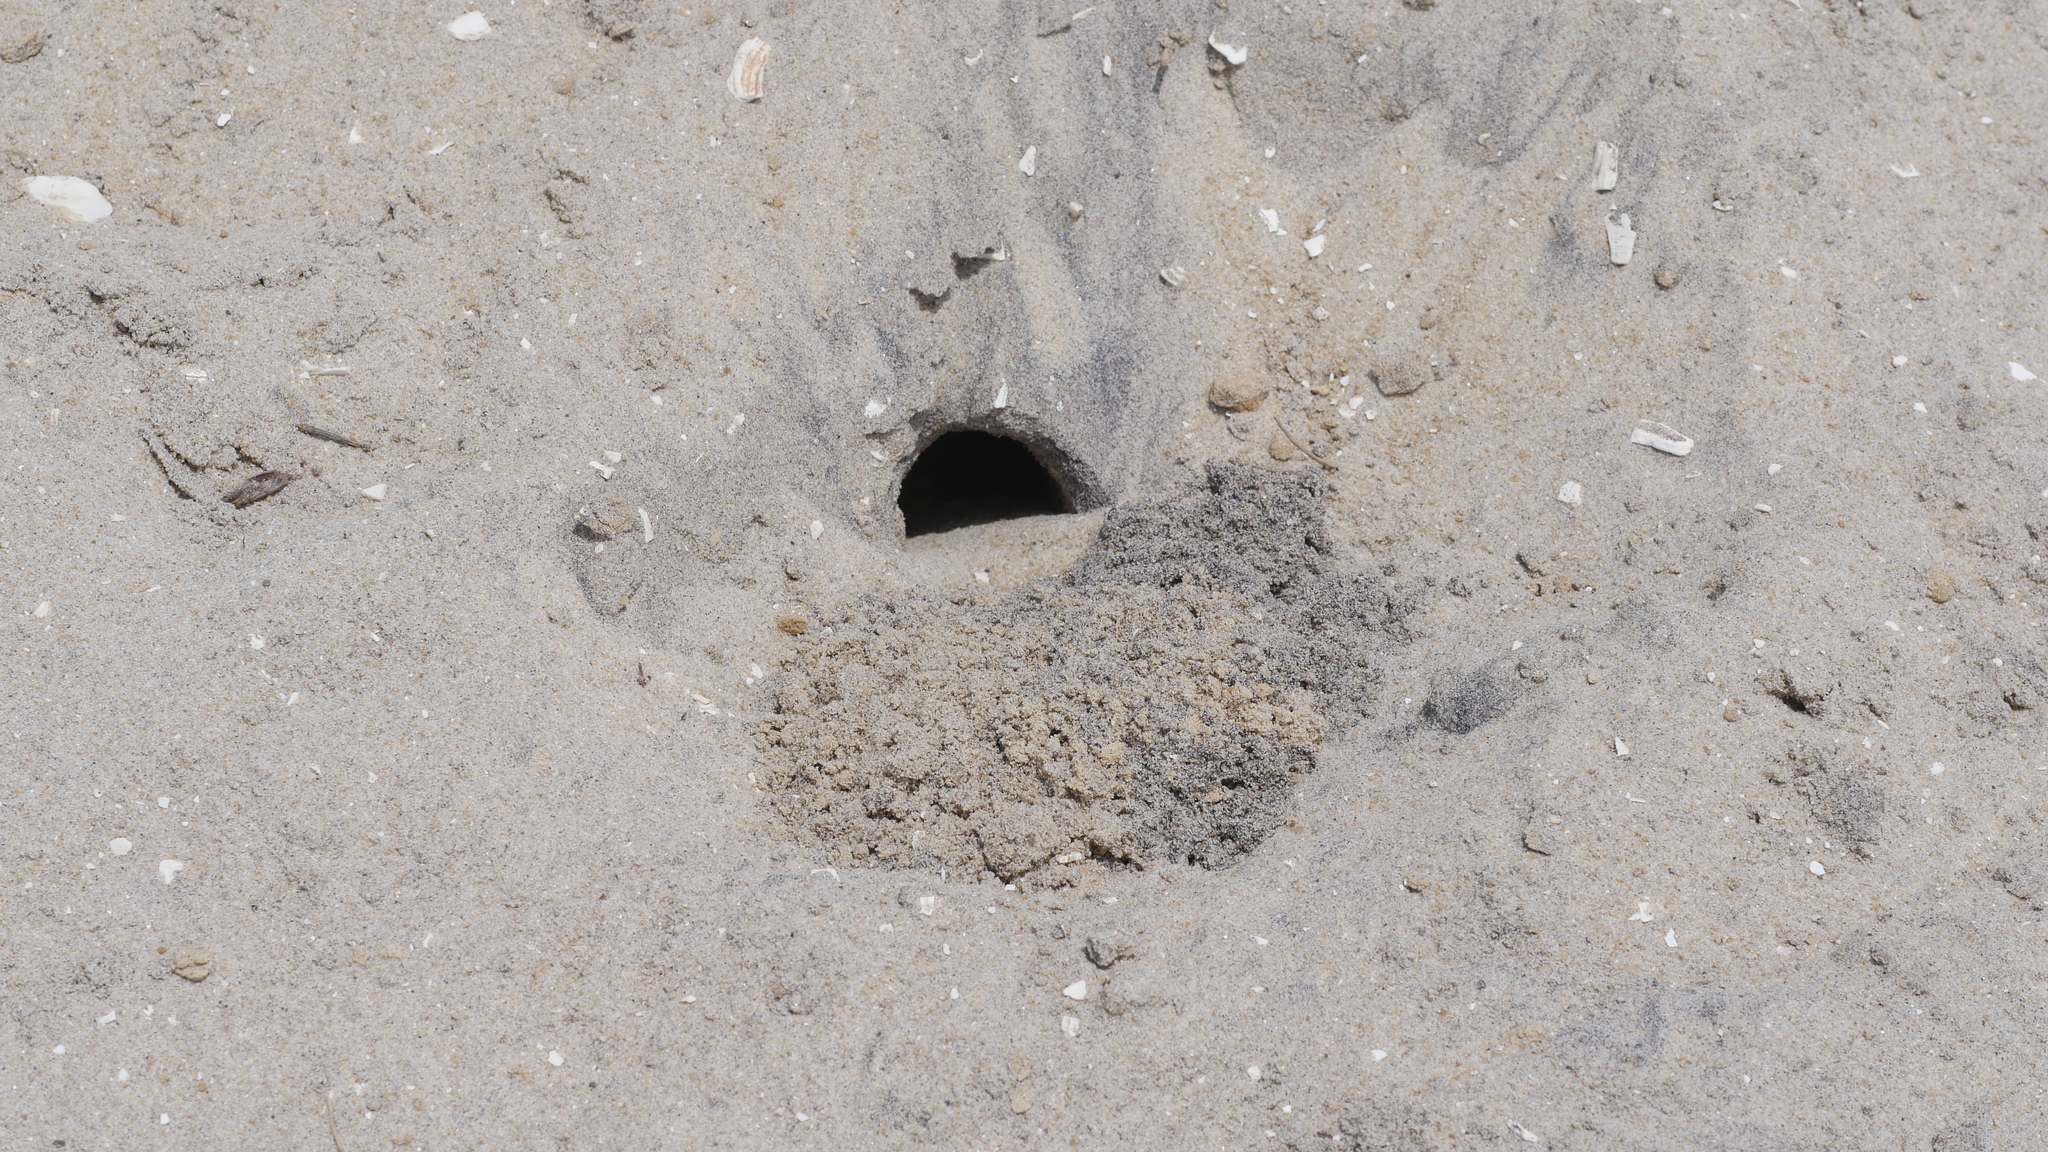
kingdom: Animalia
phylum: Arthropoda
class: Malacostraca
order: Decapoda
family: Ocypodidae
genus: Ocypode
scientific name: Ocypode quadrata
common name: Ghost crab
